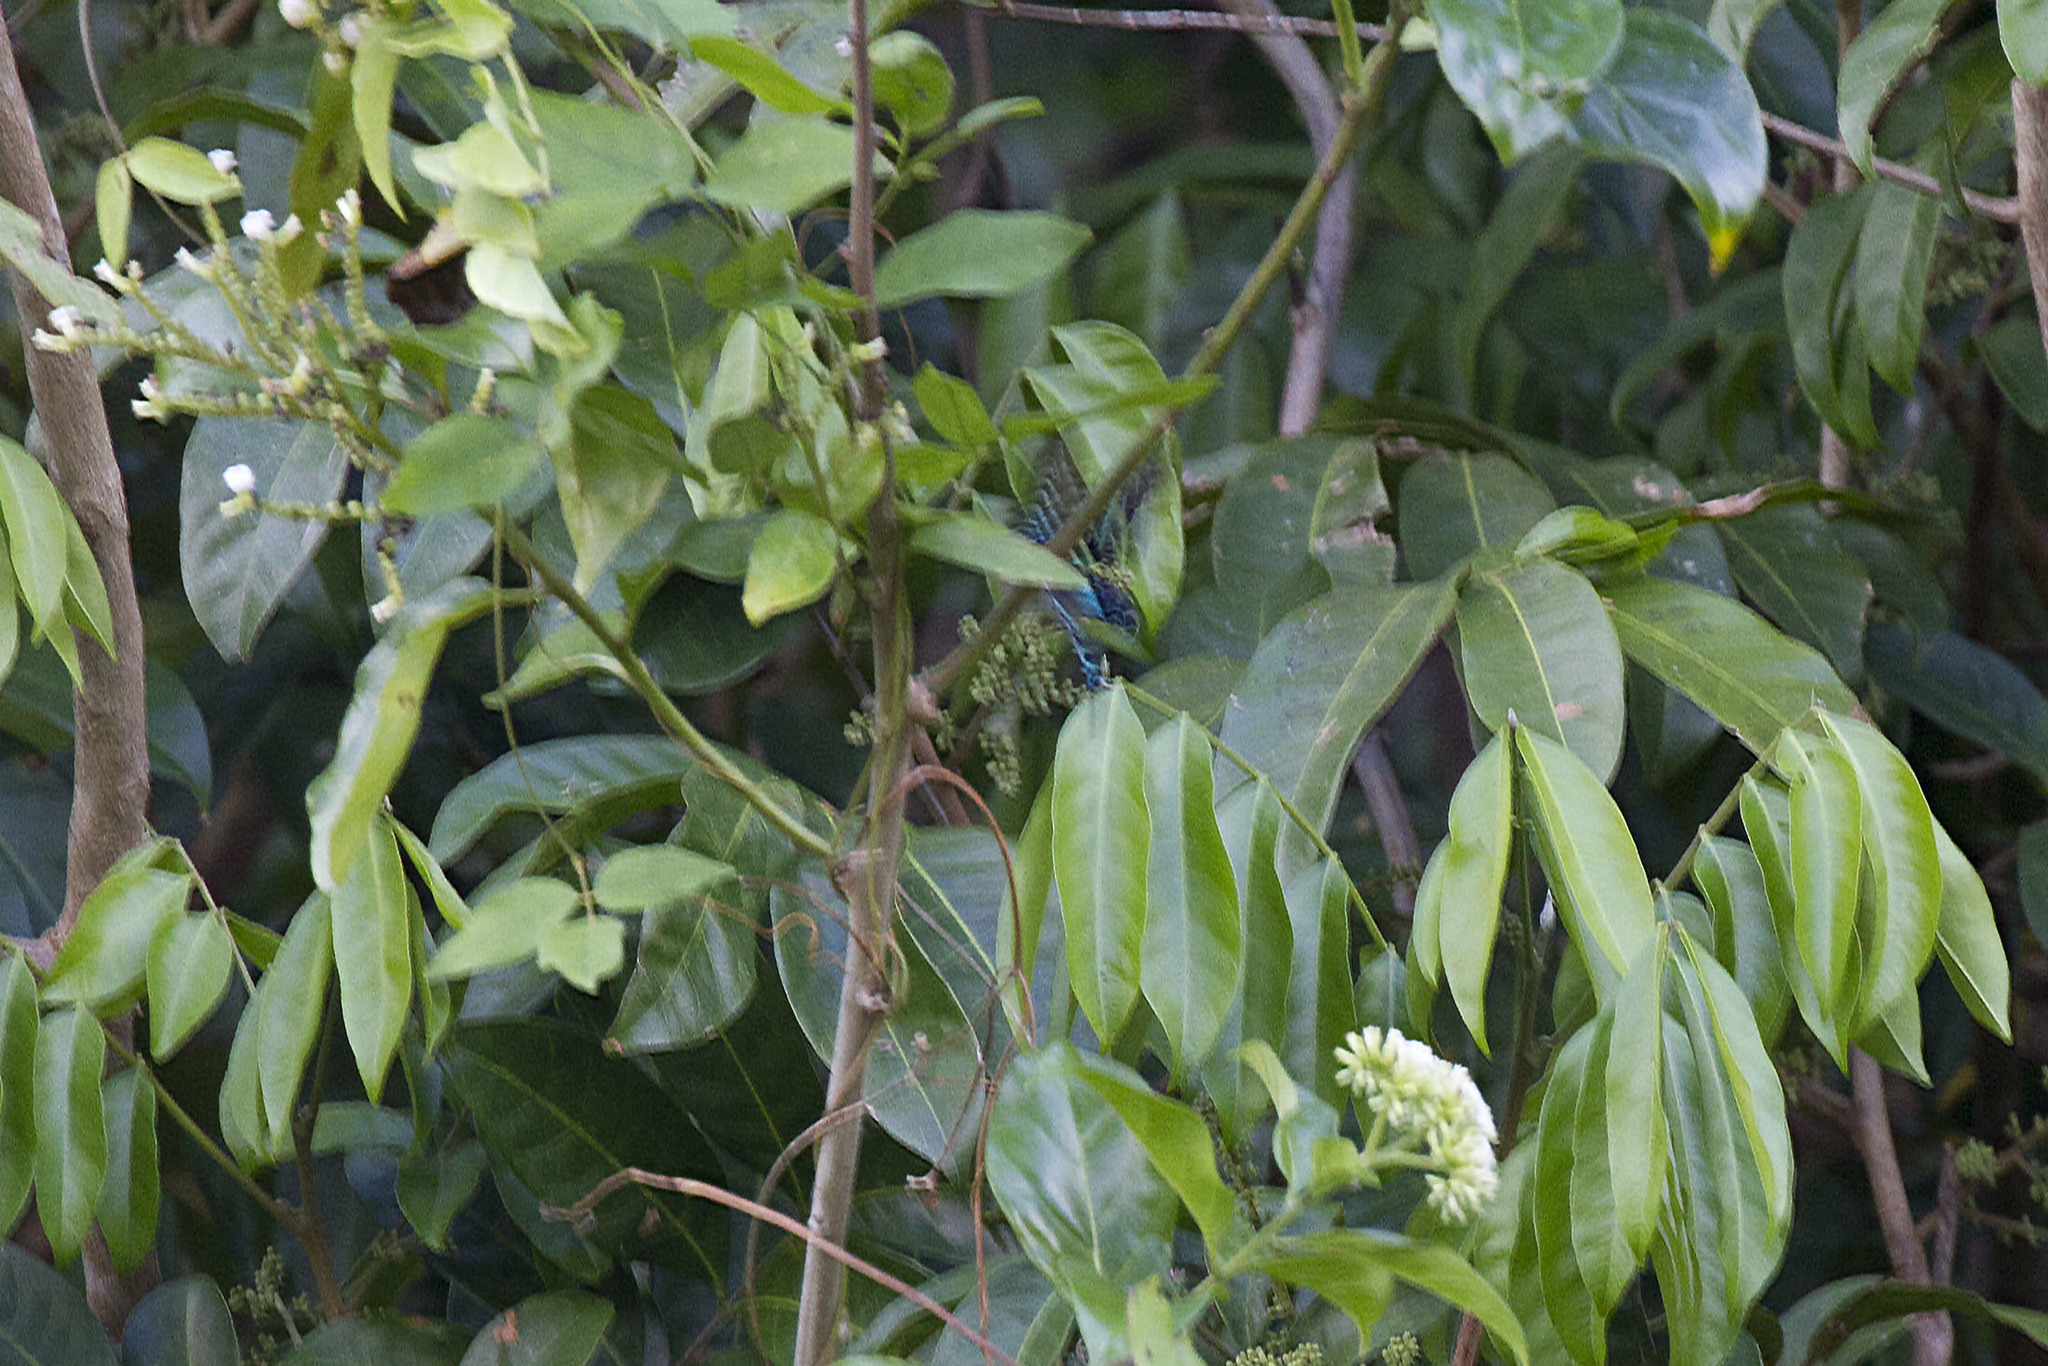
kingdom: Animalia
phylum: Arthropoda
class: Insecta
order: Lepidoptera
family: Uraniidae
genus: Urania
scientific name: Urania boisduvalii
